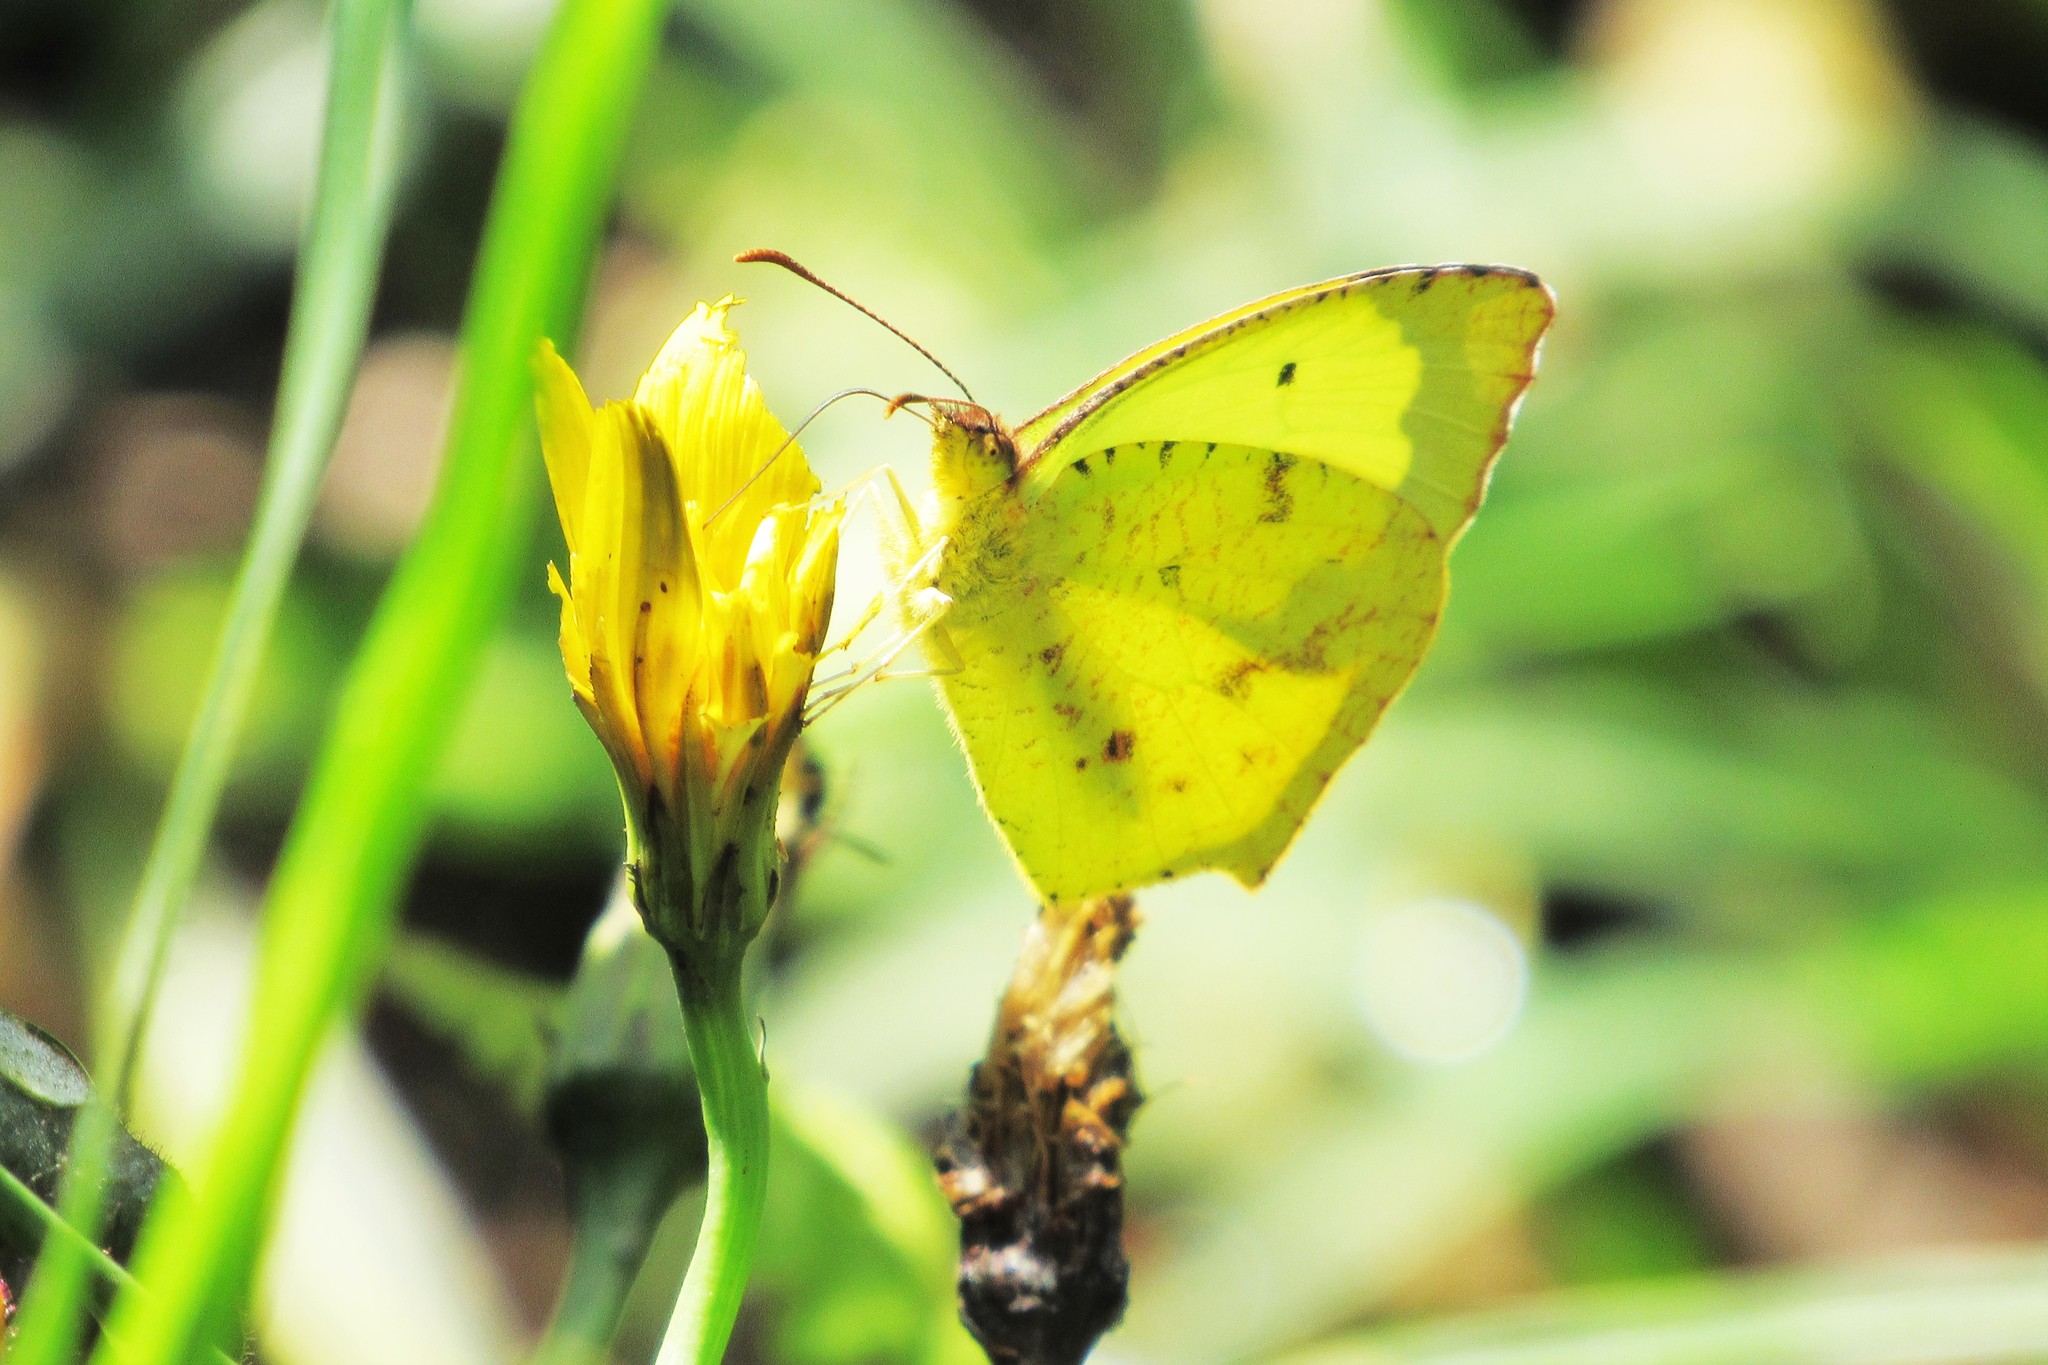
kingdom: Animalia
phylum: Arthropoda
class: Insecta
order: Lepidoptera
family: Pieridae
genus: Abaeis
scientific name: Abaeis salome
